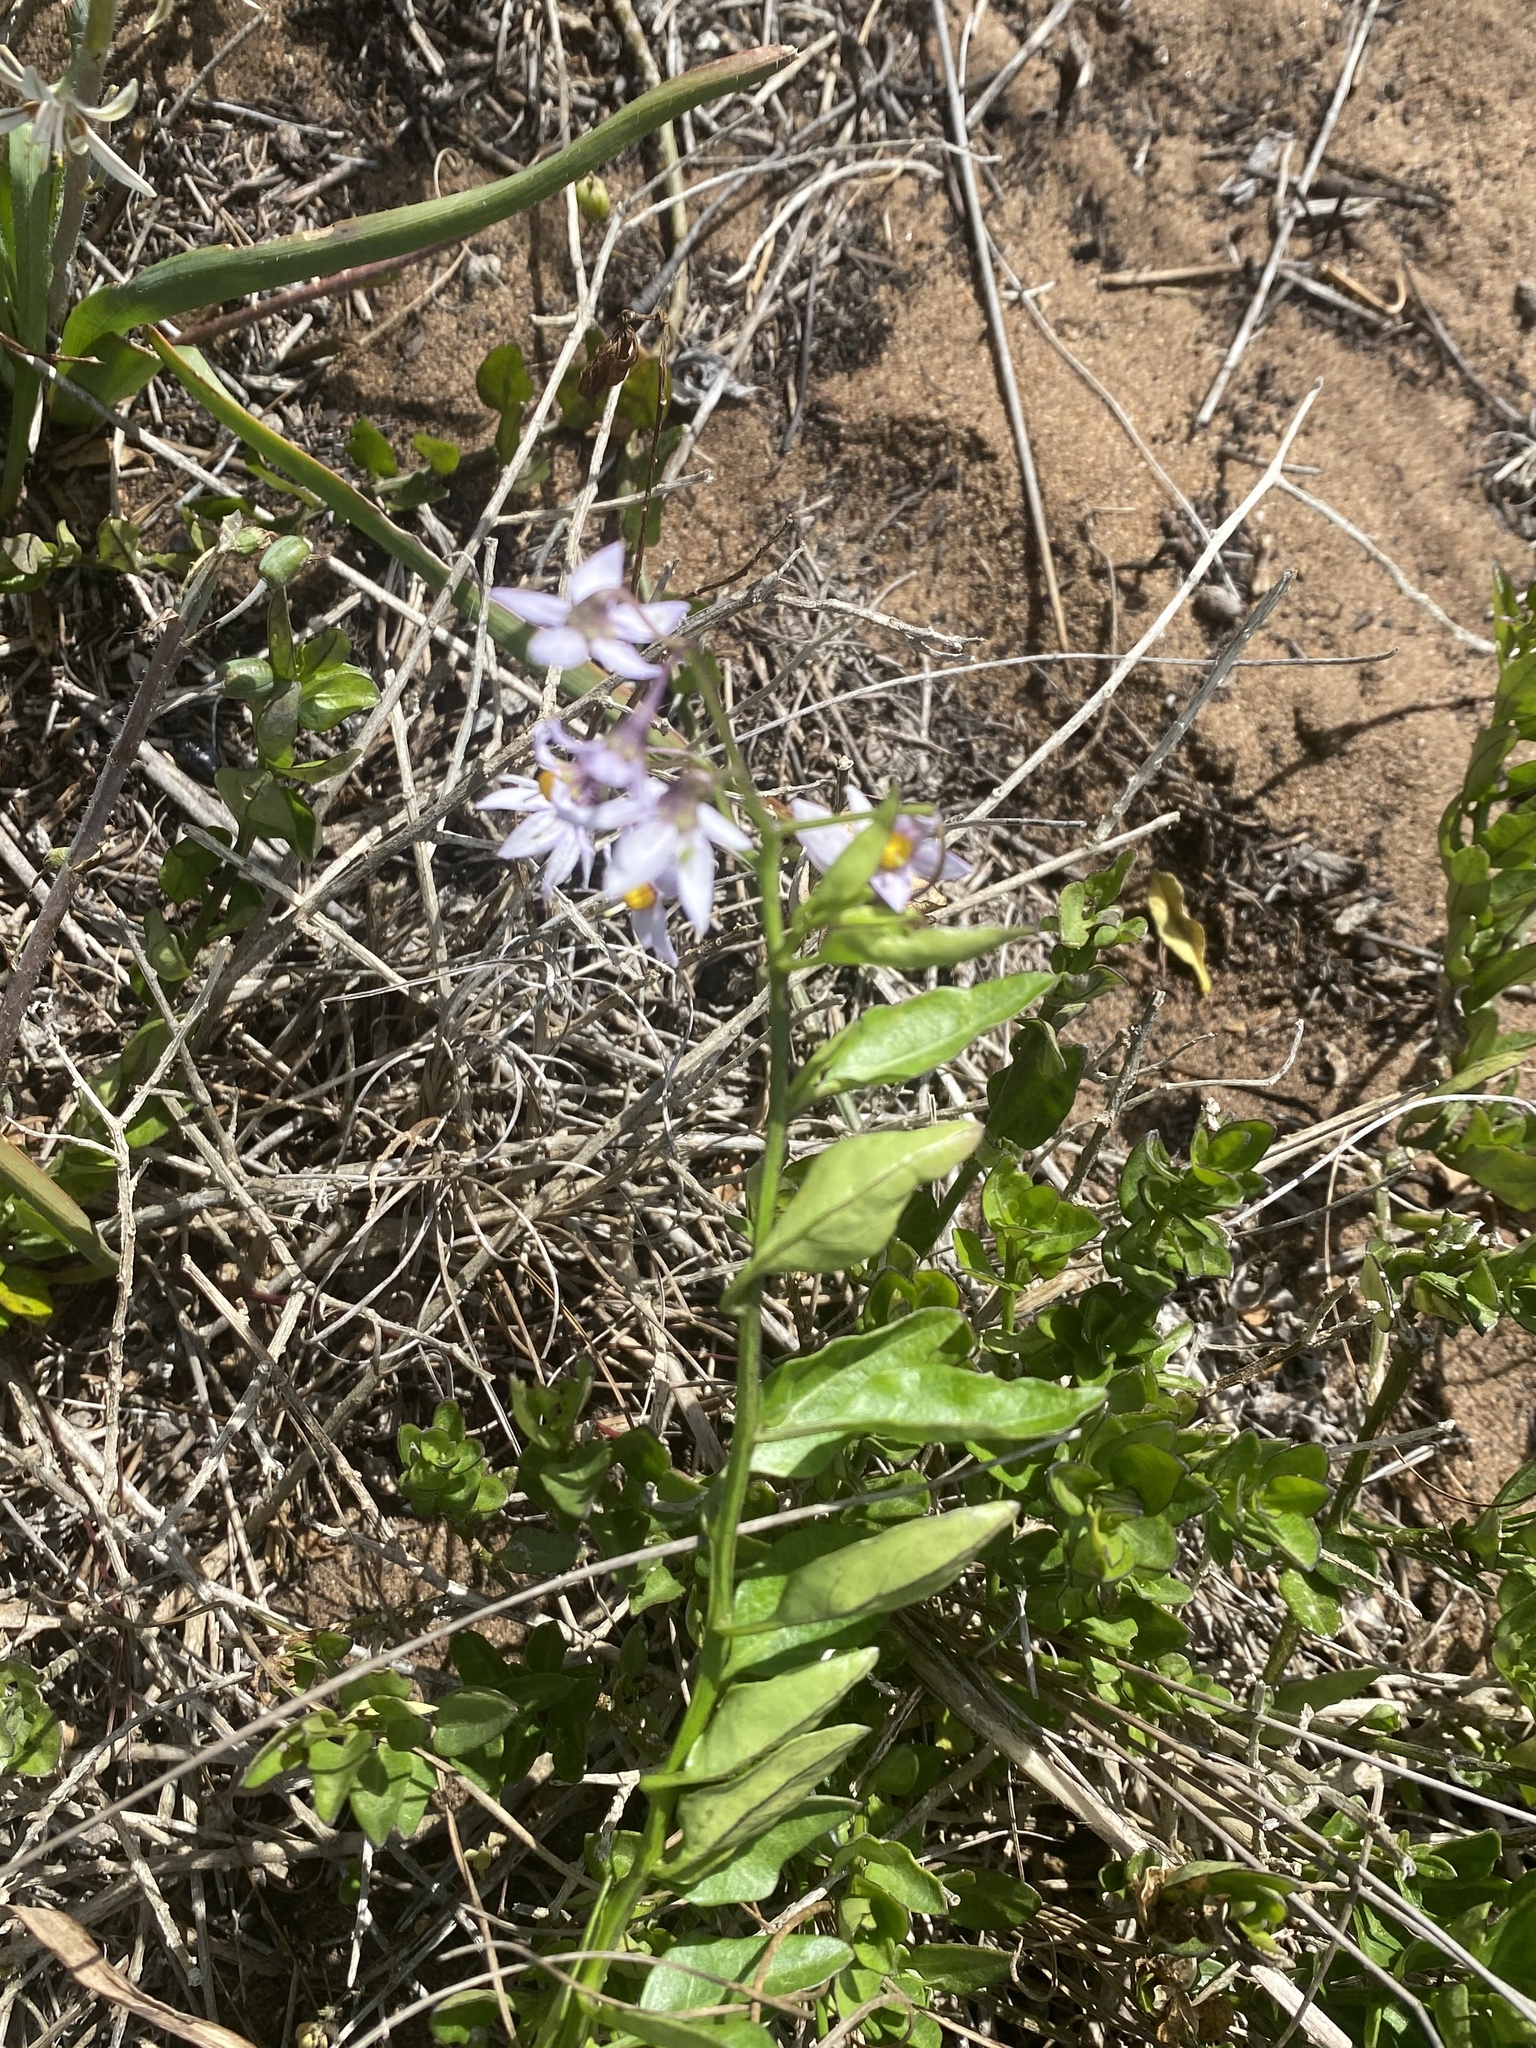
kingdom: Plantae
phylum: Tracheophyta
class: Magnoliopsida
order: Solanales
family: Solanaceae
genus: Solanum
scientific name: Solanum africanum
